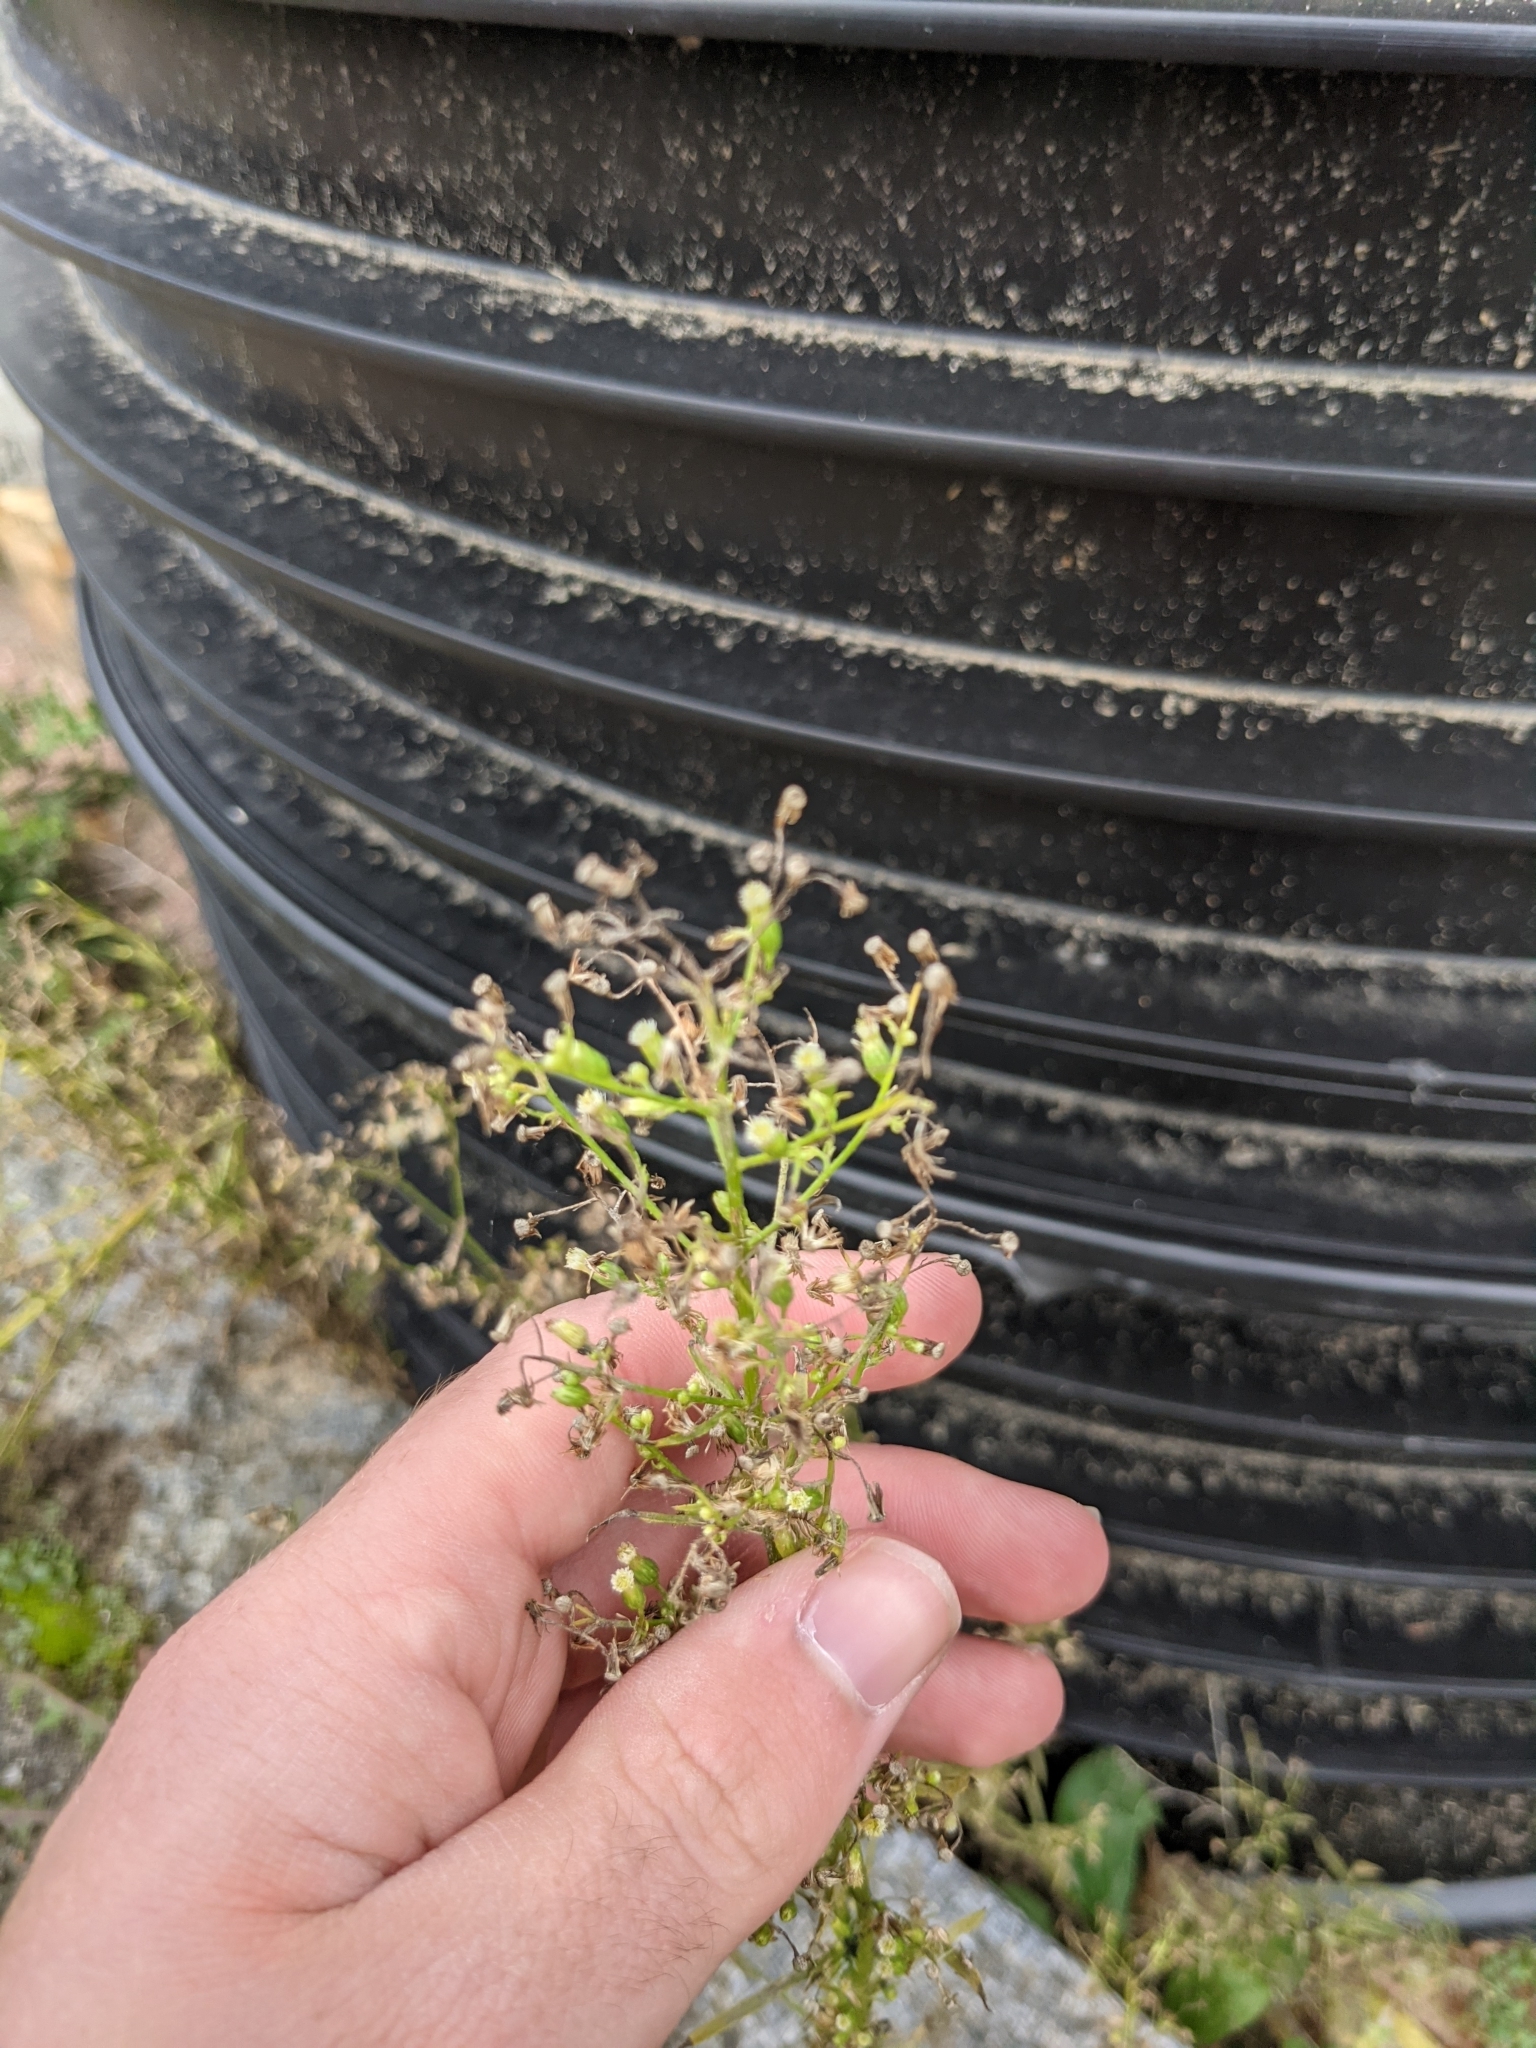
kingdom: Plantae
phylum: Tracheophyta
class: Magnoliopsida
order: Asterales
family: Asteraceae
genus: Erigeron
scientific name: Erigeron canadensis
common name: Canadian fleabane
